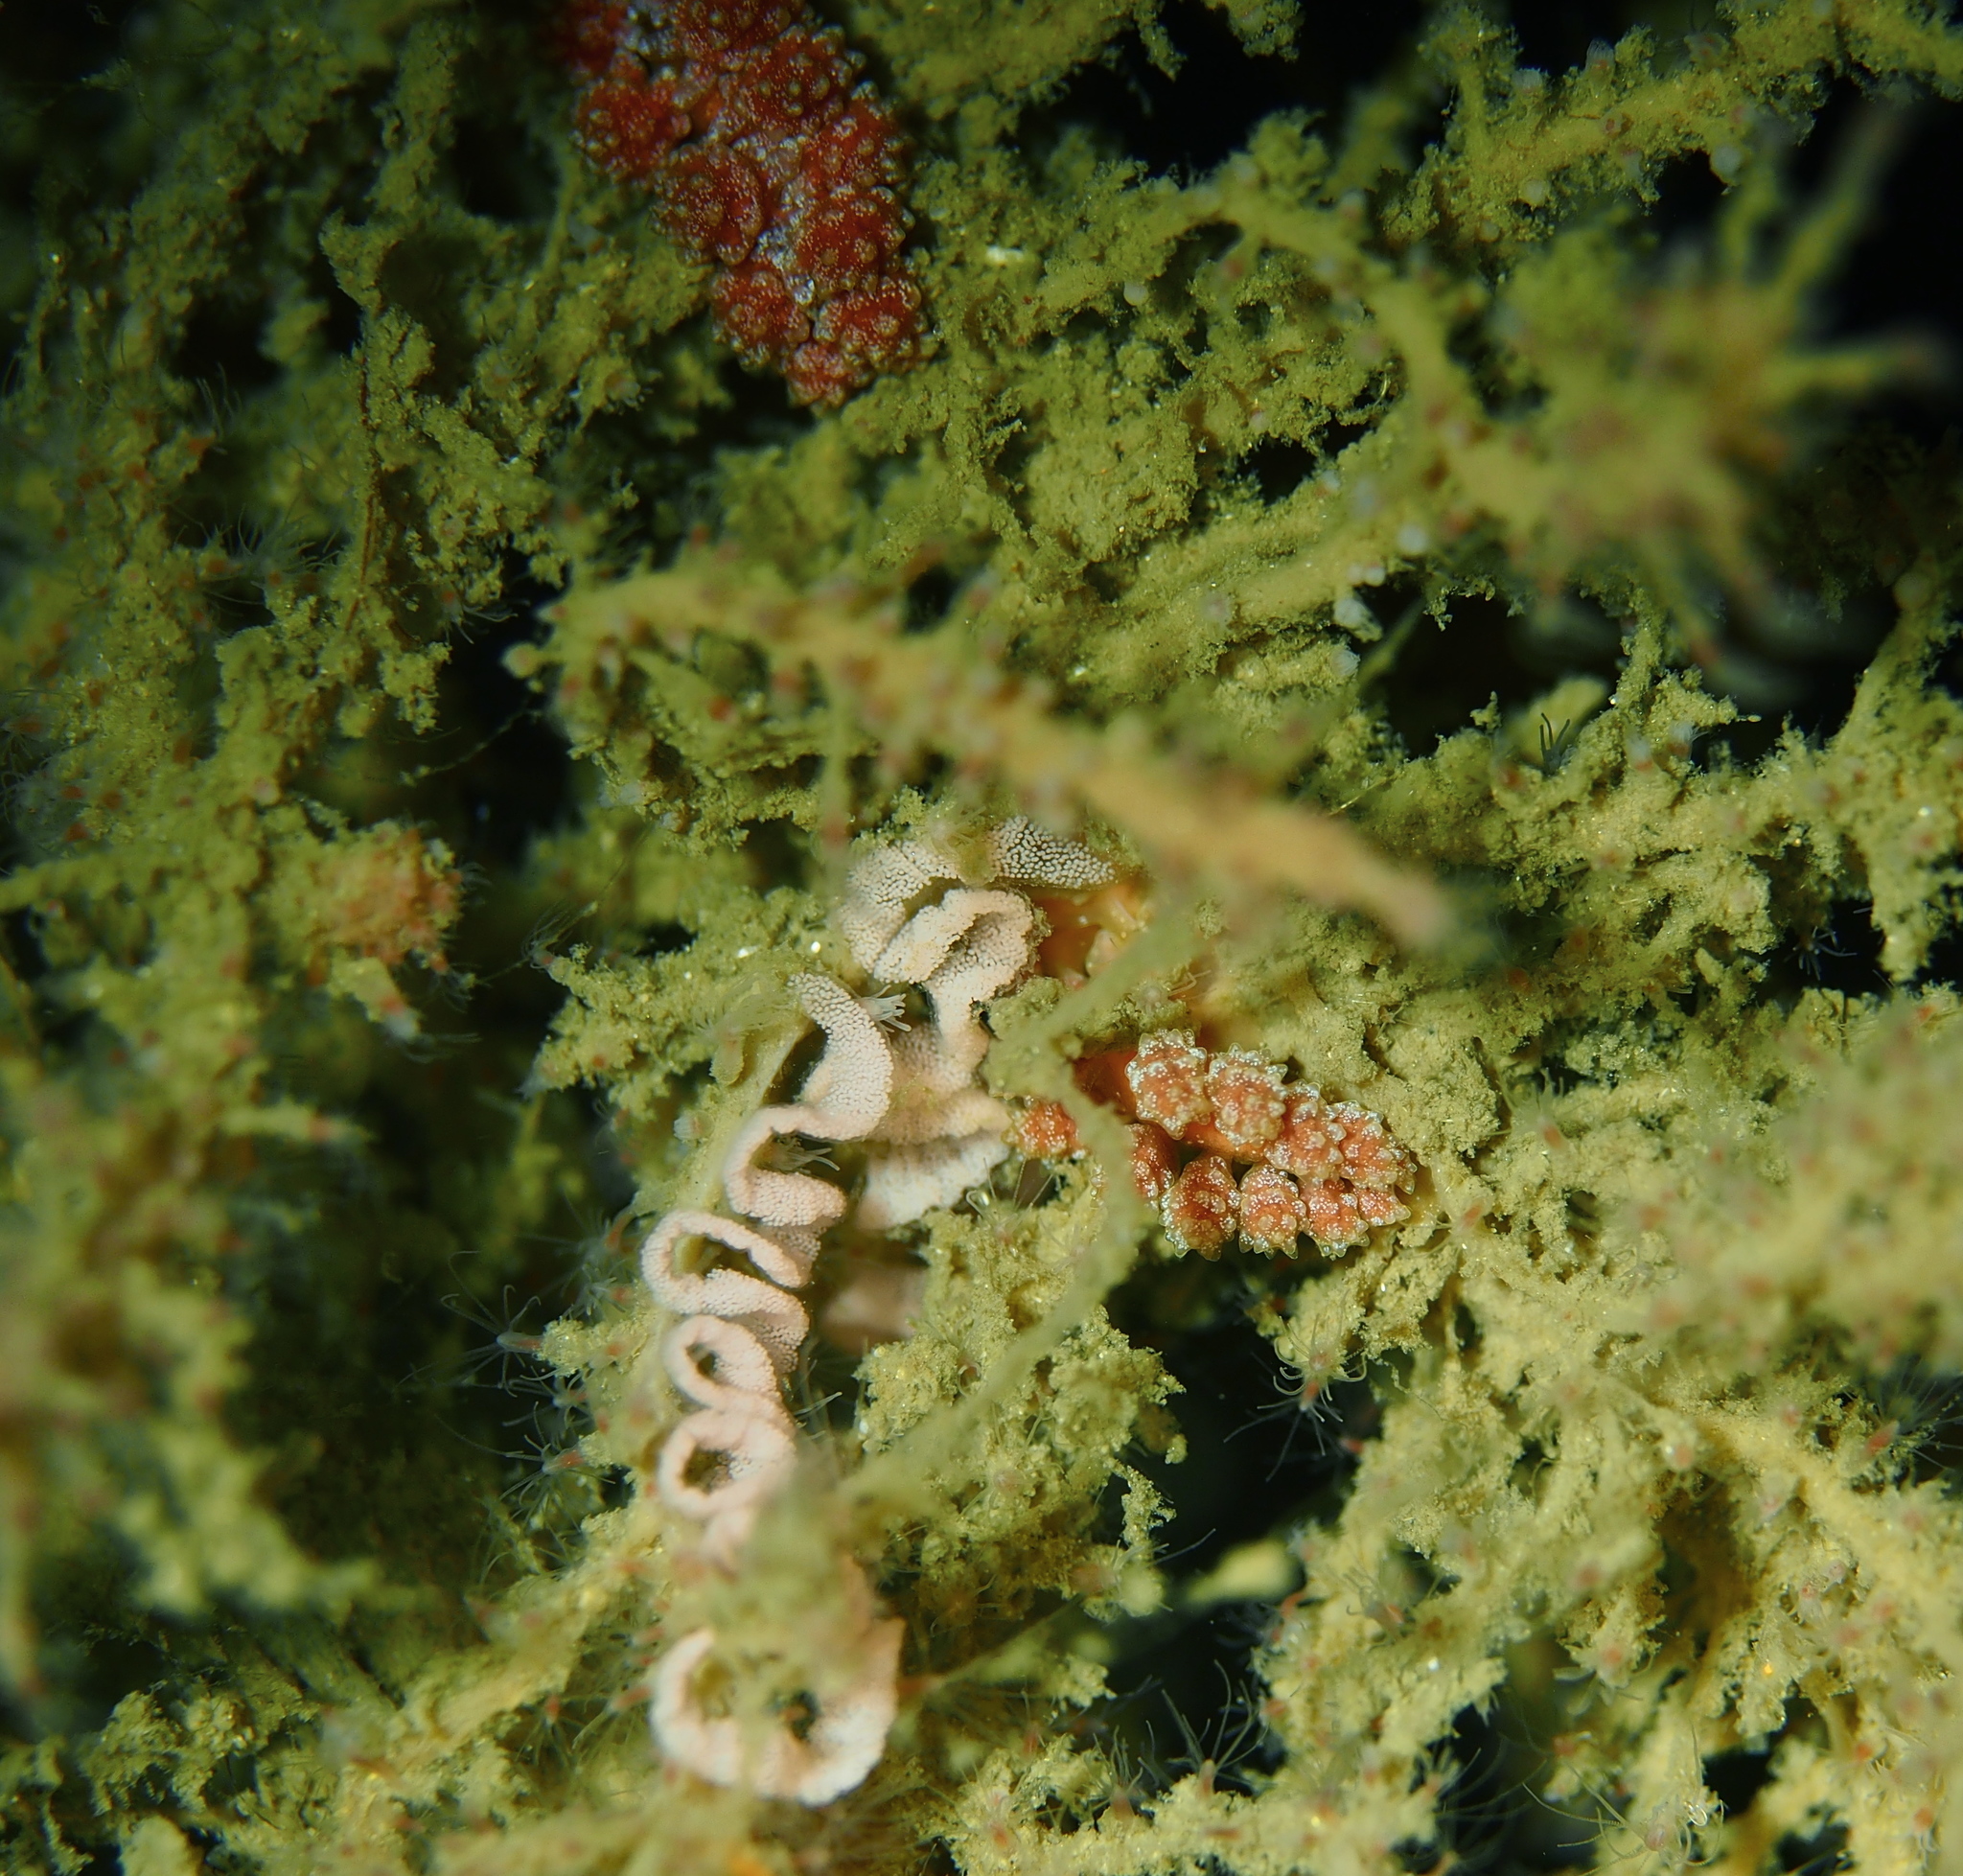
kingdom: Animalia
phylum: Mollusca
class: Gastropoda
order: Nudibranchia
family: Dotidae
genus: Doto
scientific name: Doto fragilis
